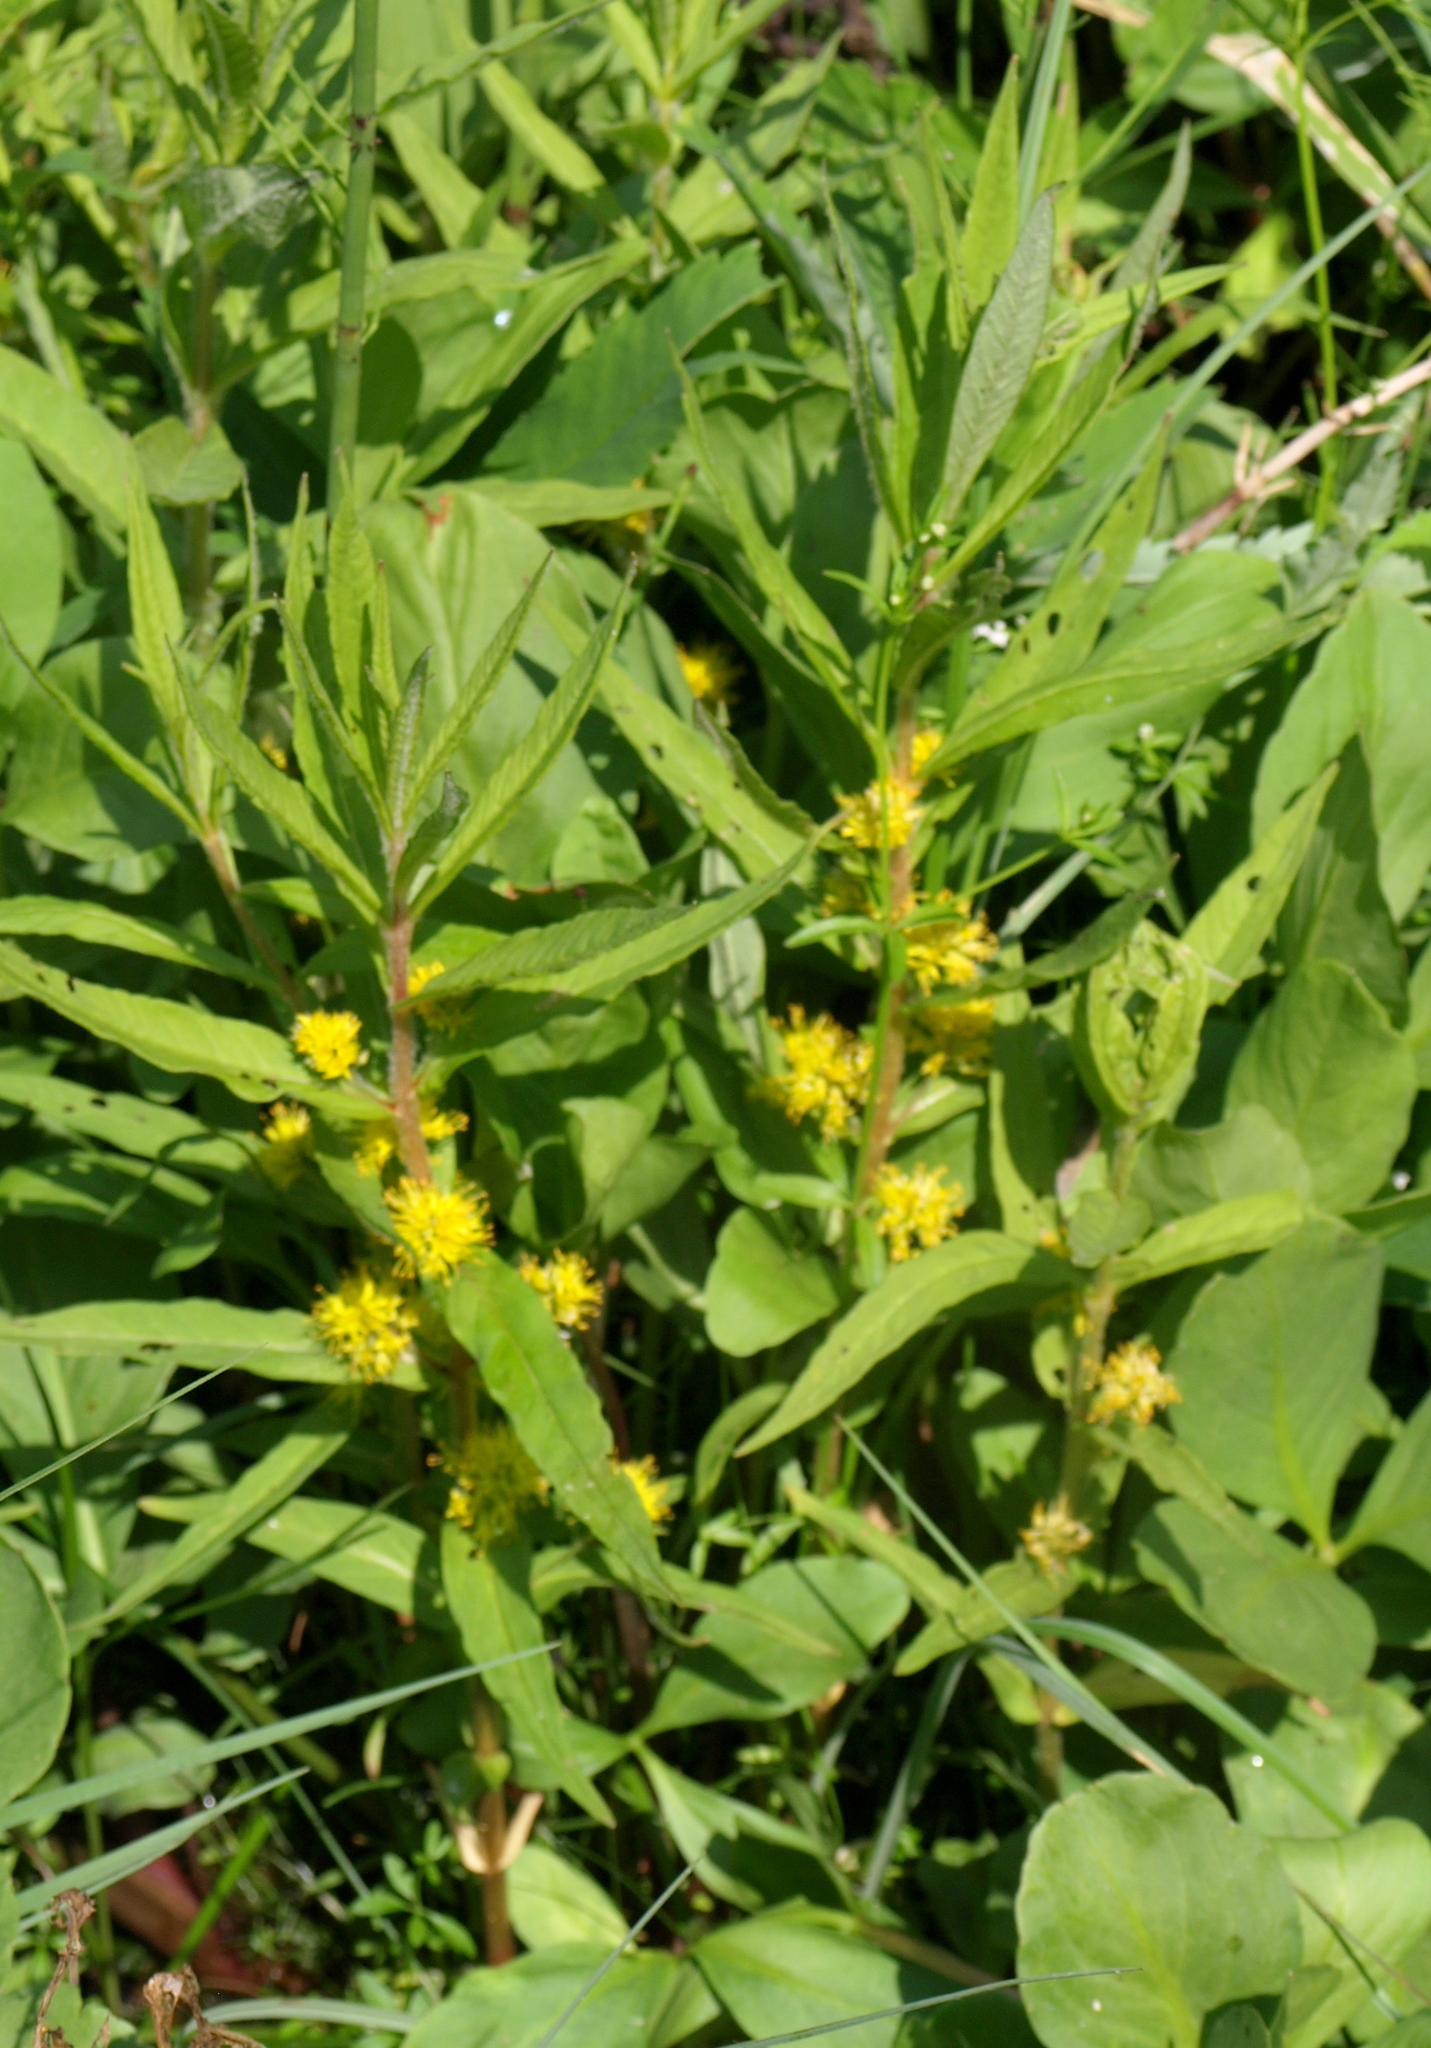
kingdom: Plantae
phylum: Tracheophyta
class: Magnoliopsida
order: Ericales
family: Primulaceae
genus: Lysimachia
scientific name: Lysimachia thyrsiflora
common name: Tufted loosestrife
